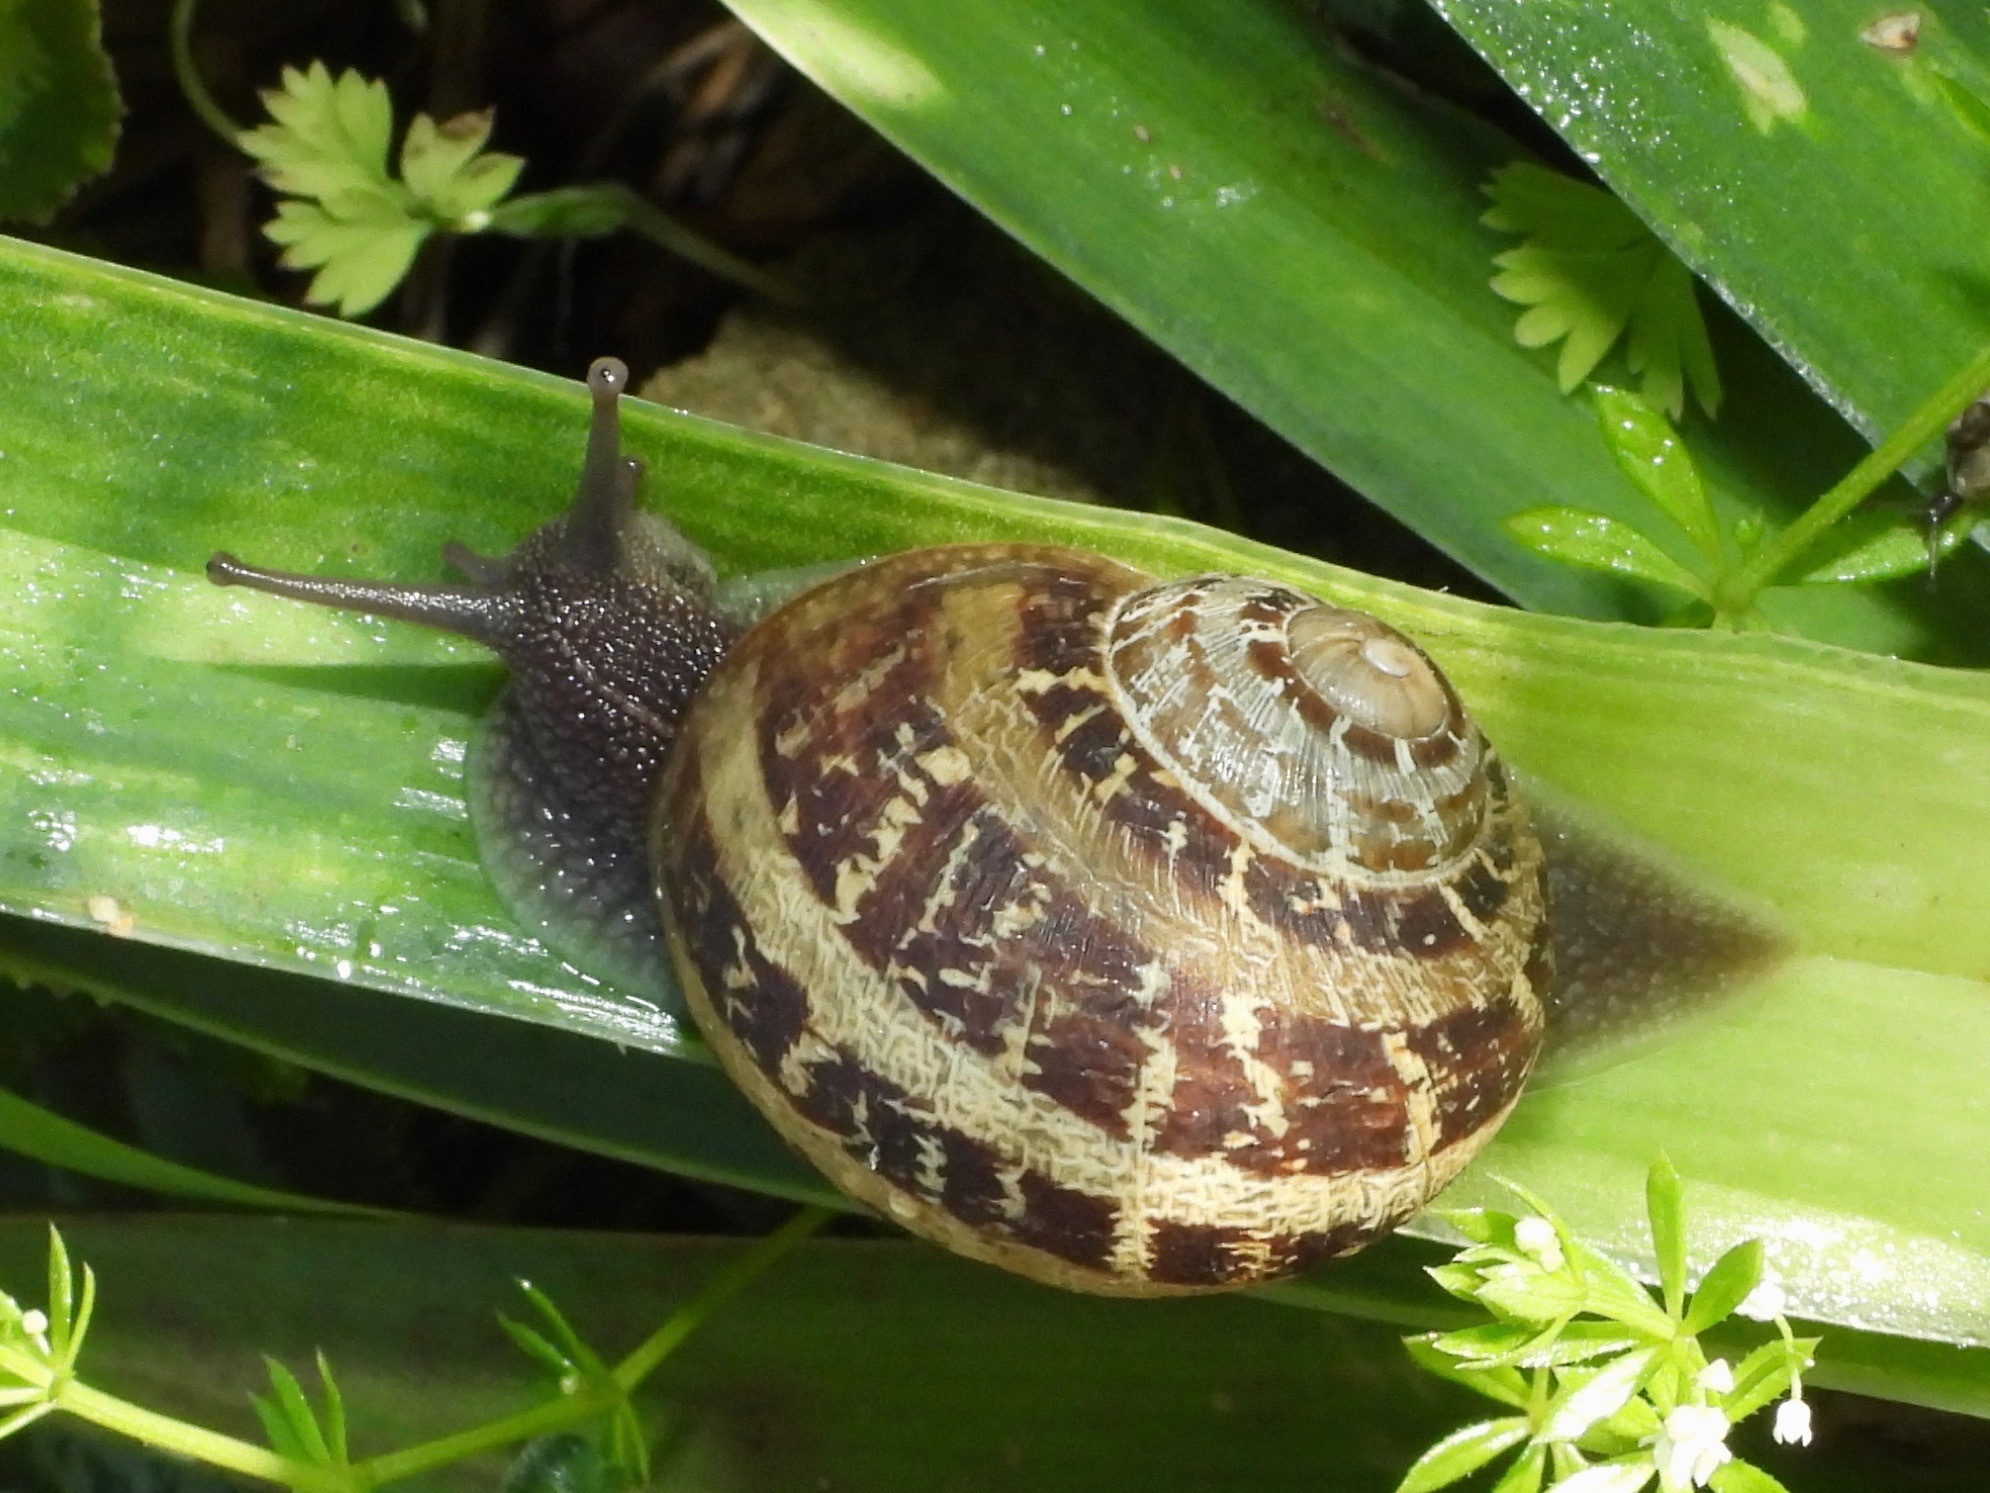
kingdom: Animalia
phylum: Mollusca
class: Gastropoda
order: Stylommatophora
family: Helicidae
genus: Cornu
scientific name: Cornu aspersum
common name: Brown garden snail
